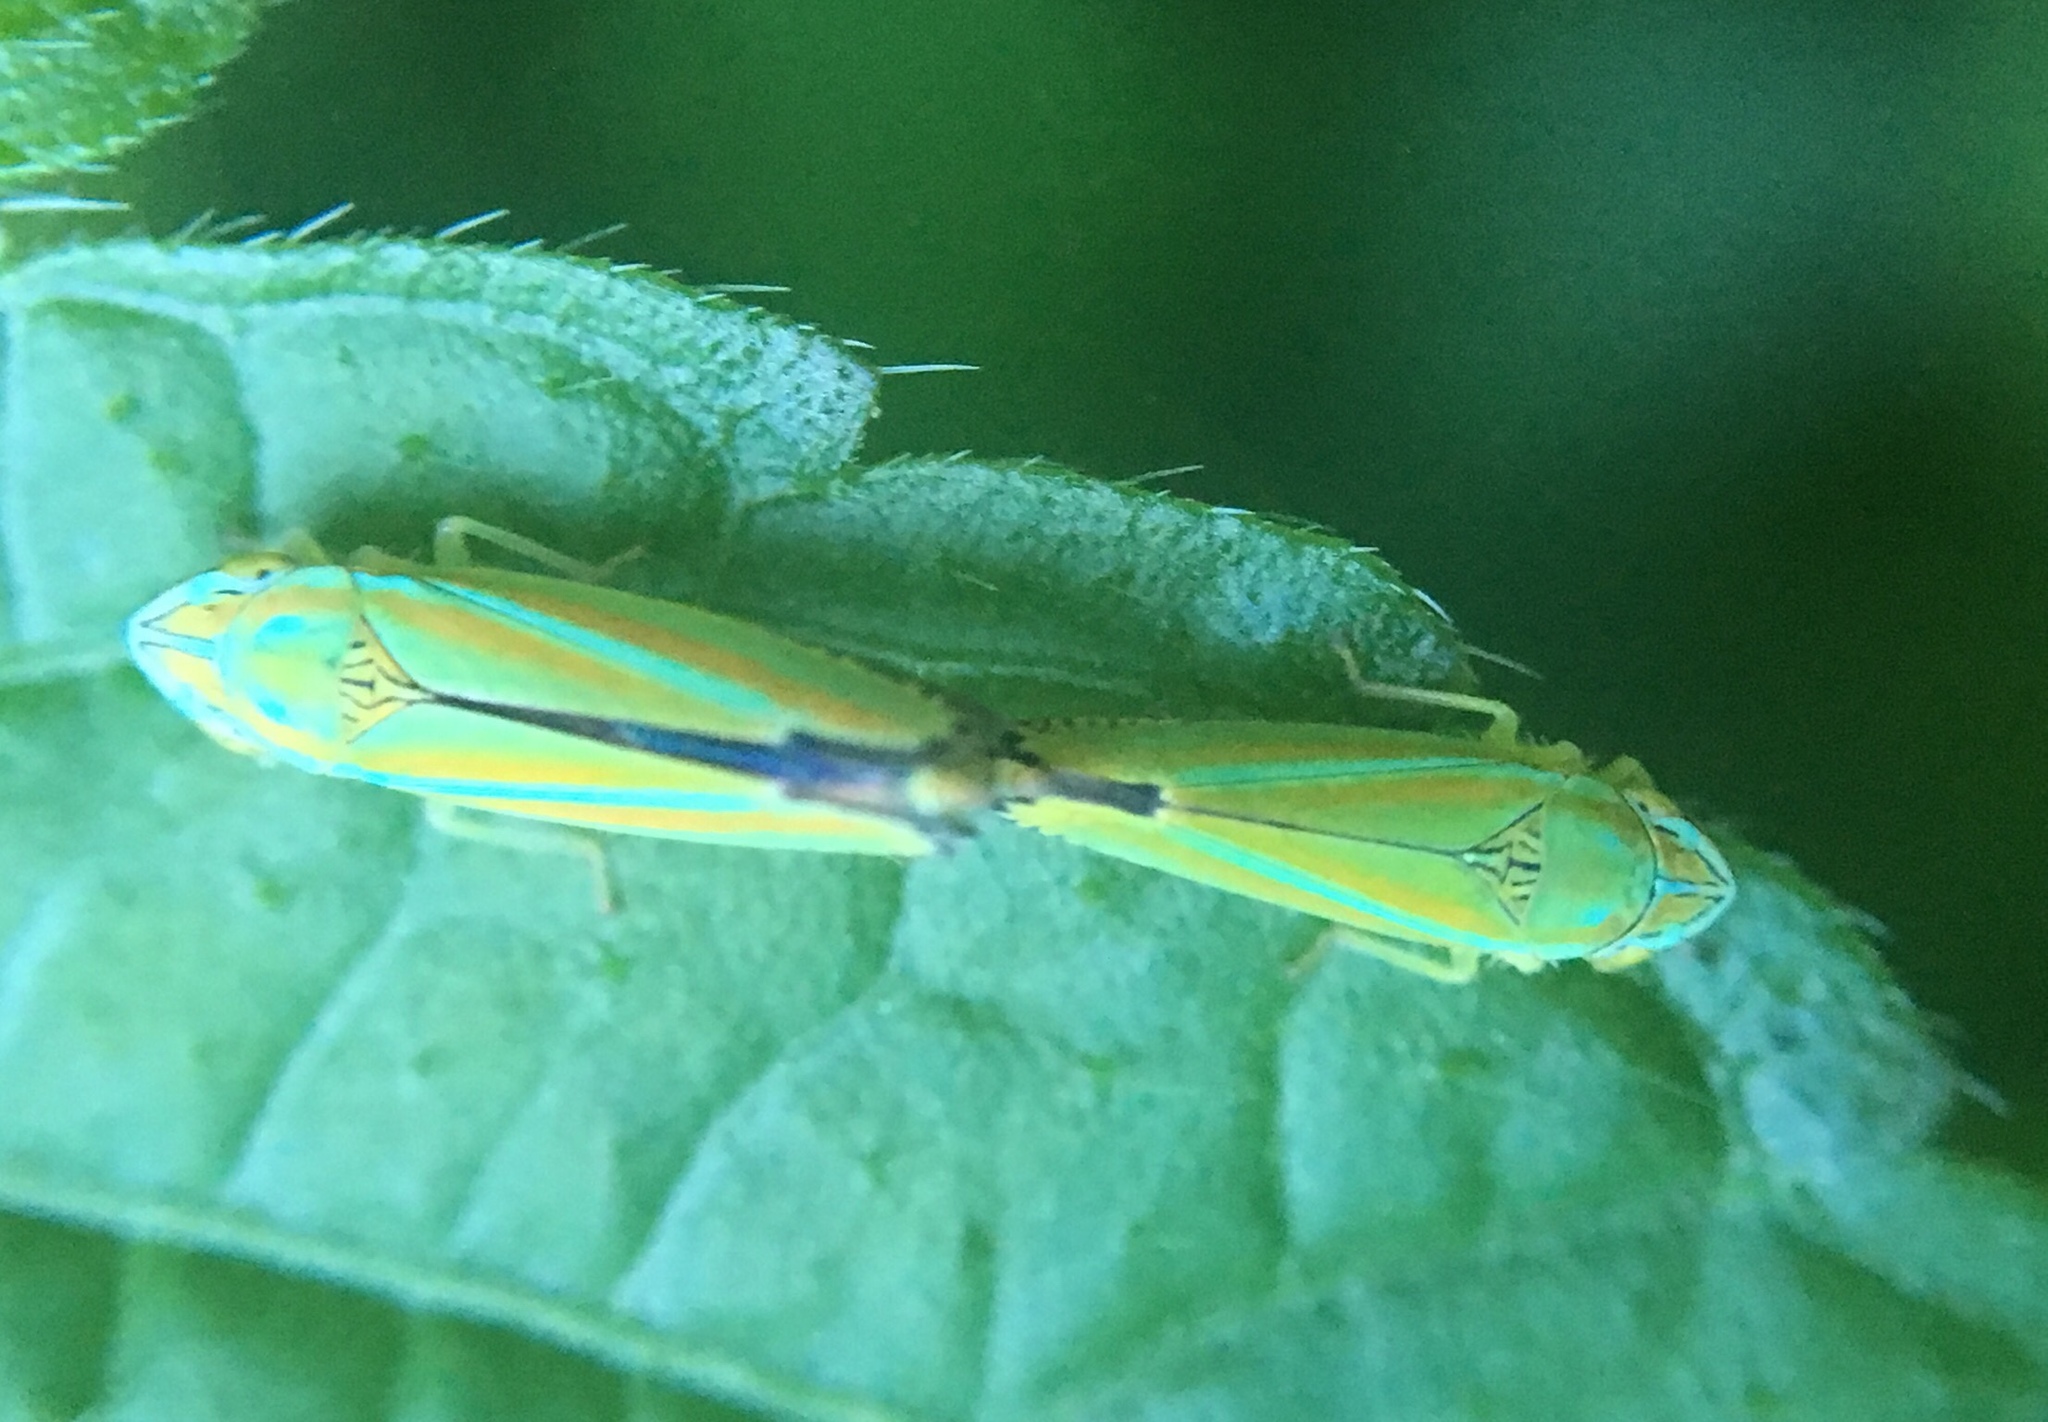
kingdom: Animalia
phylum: Arthropoda
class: Insecta
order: Hemiptera
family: Cicadellidae
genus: Graphocephala
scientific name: Graphocephala versuta
